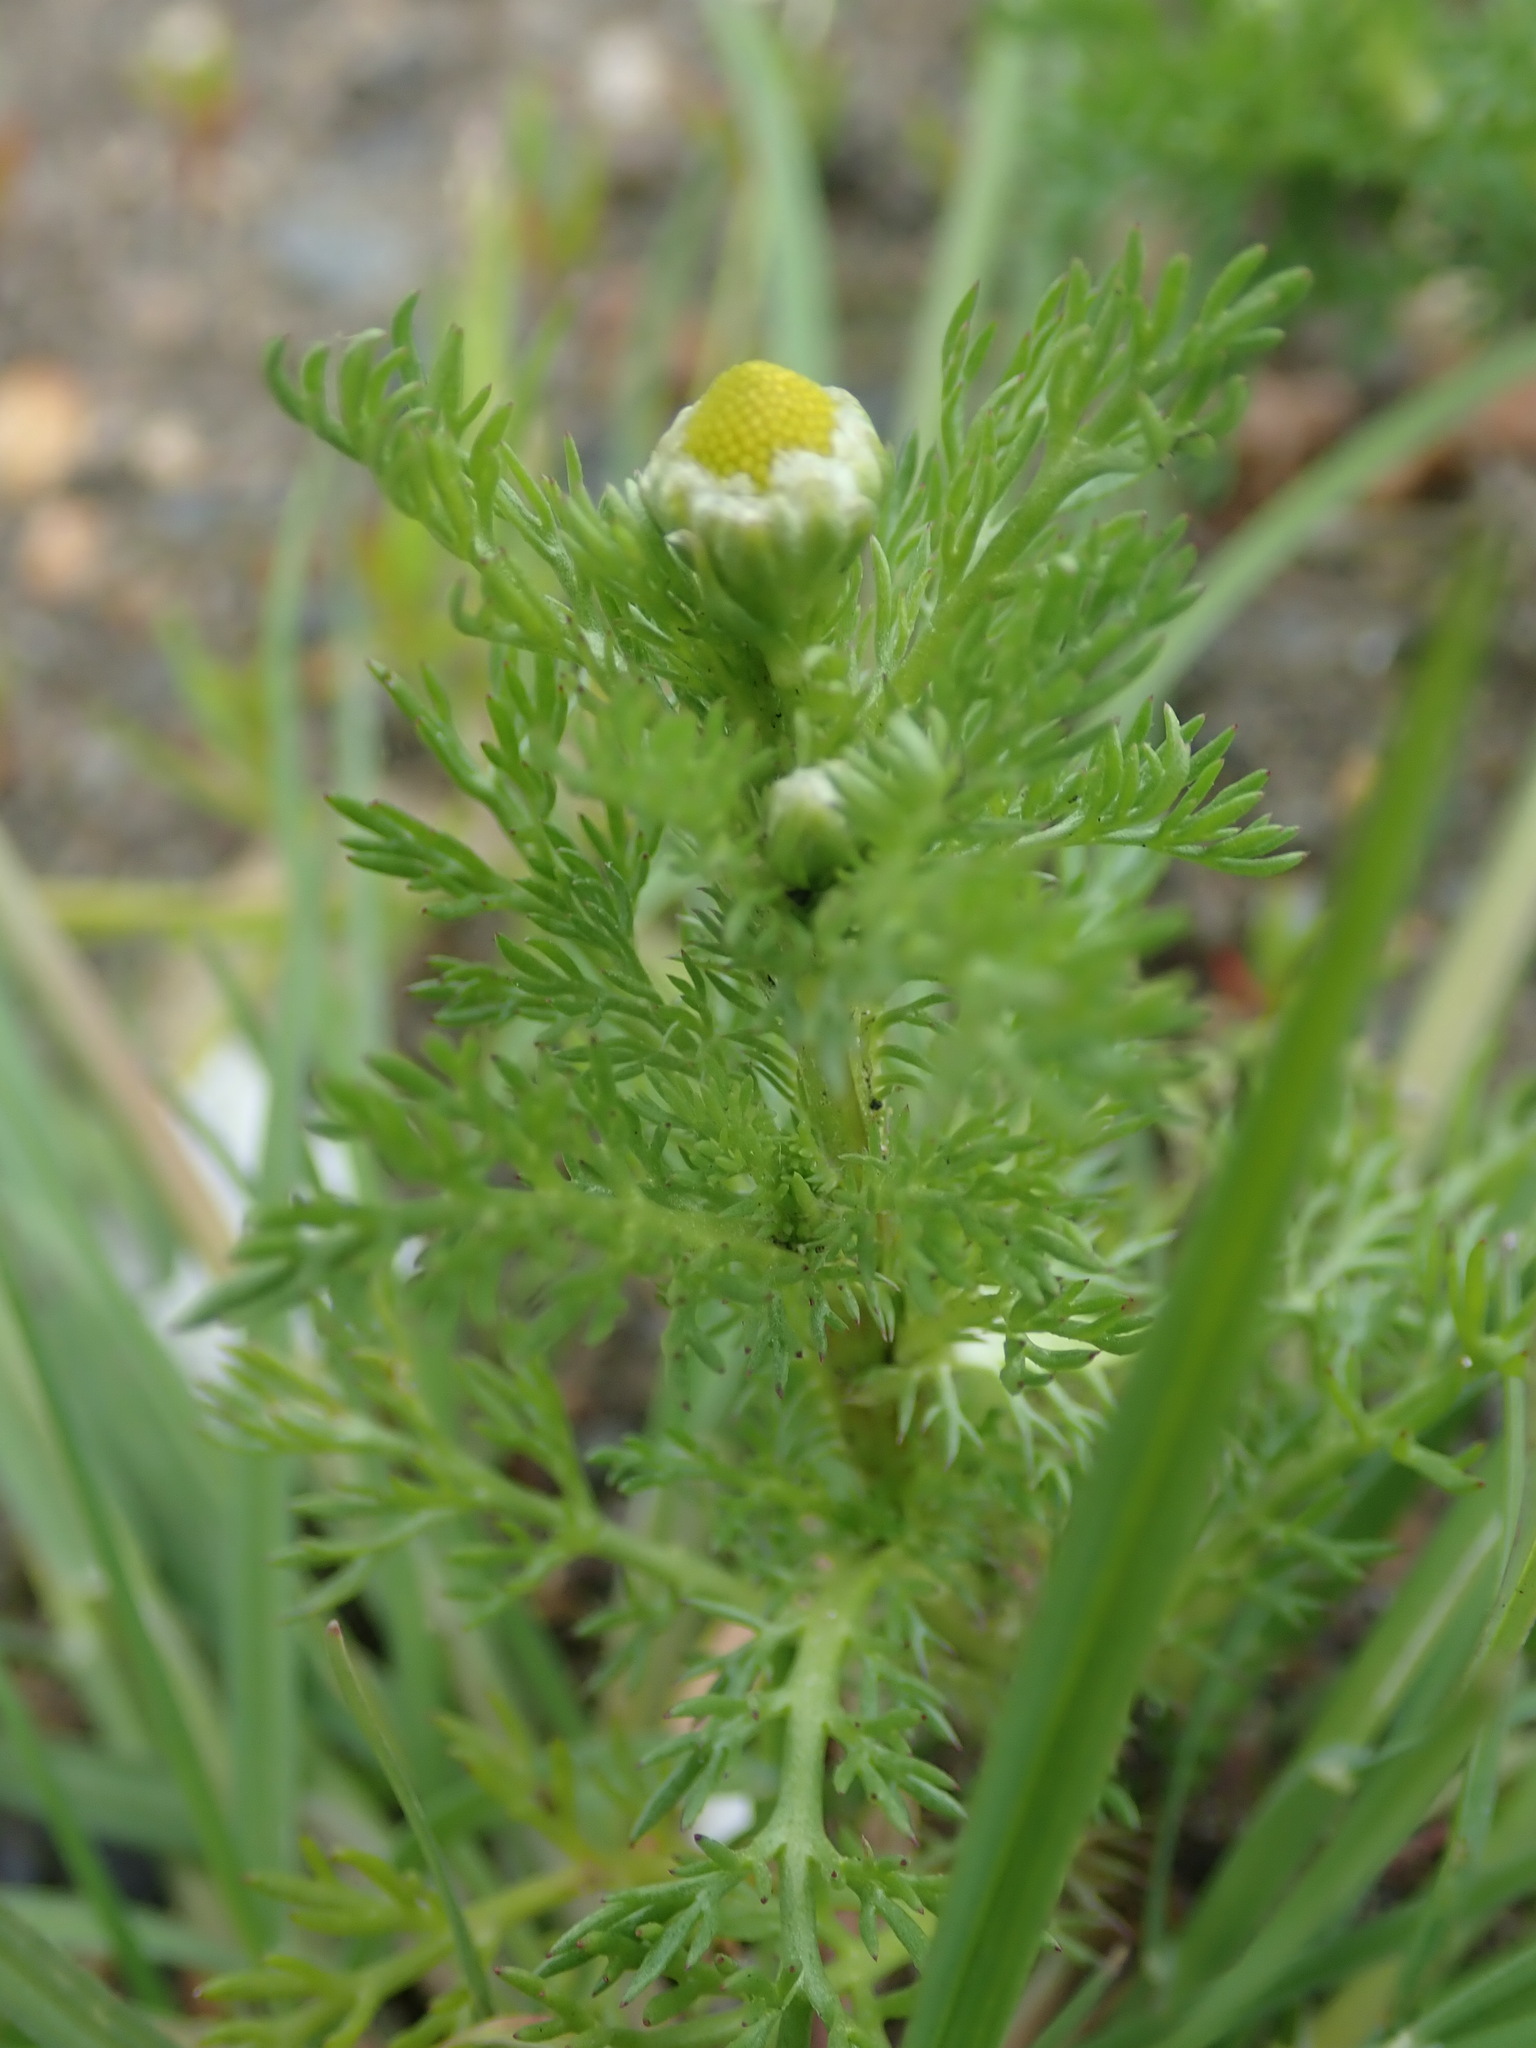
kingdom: Plantae
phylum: Tracheophyta
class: Magnoliopsida
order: Asterales
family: Asteraceae
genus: Matricaria
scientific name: Matricaria discoidea
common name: Disc mayweed
